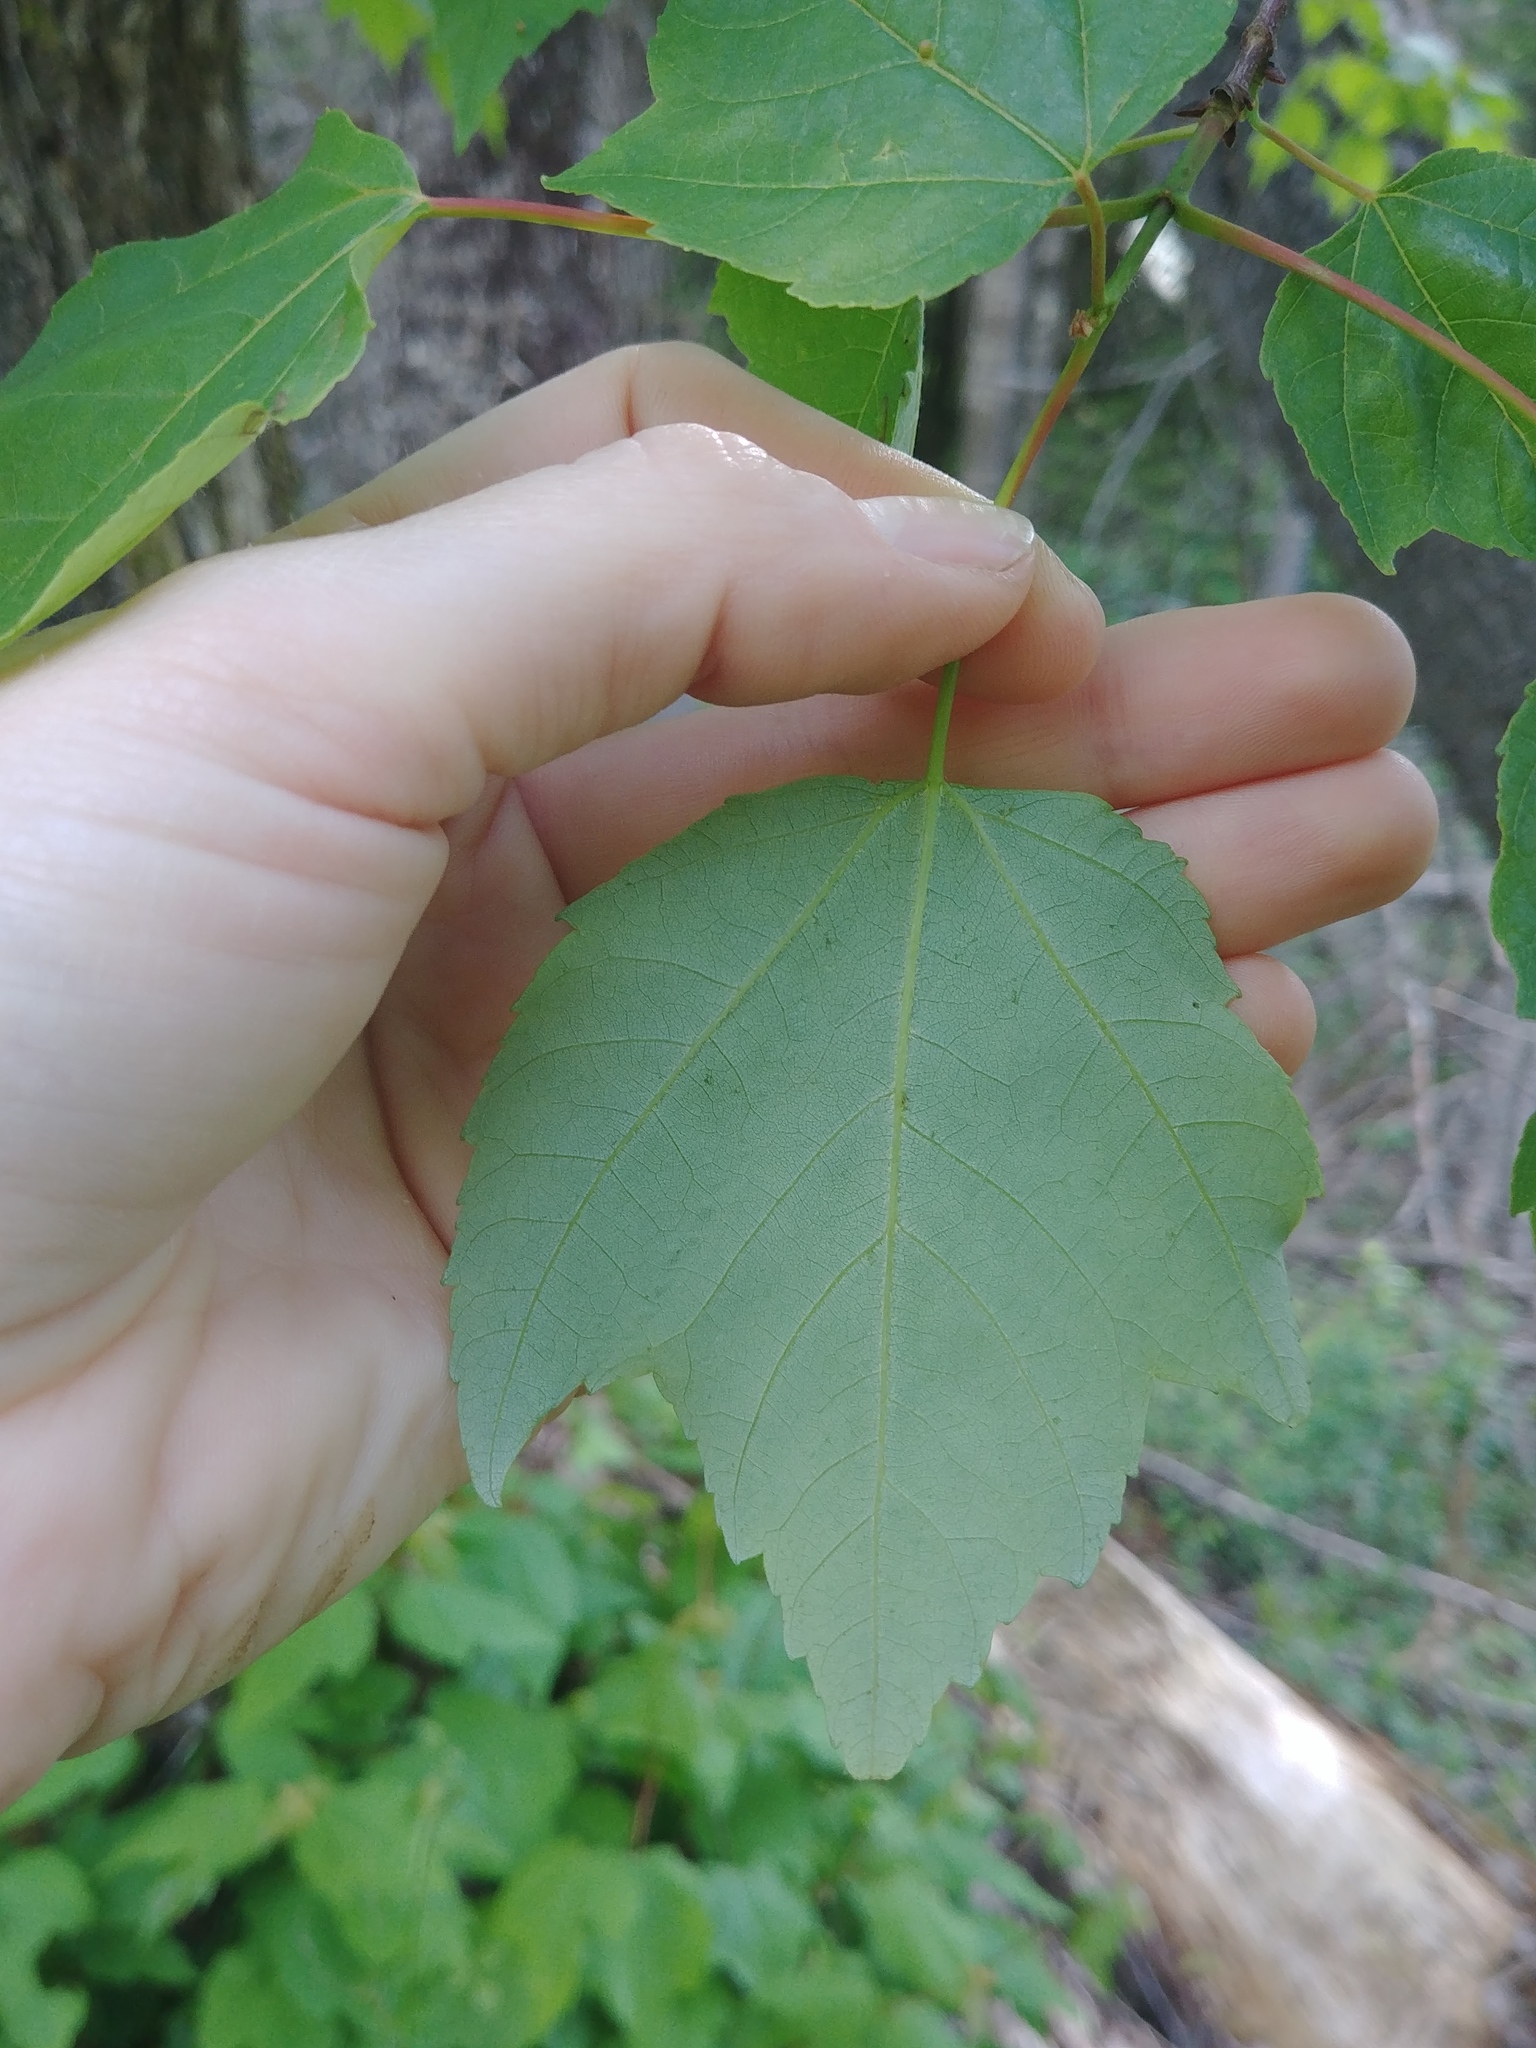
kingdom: Plantae
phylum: Tracheophyta
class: Magnoliopsida
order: Sapindales
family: Sapindaceae
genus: Acer
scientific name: Acer rubrum
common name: Red maple
